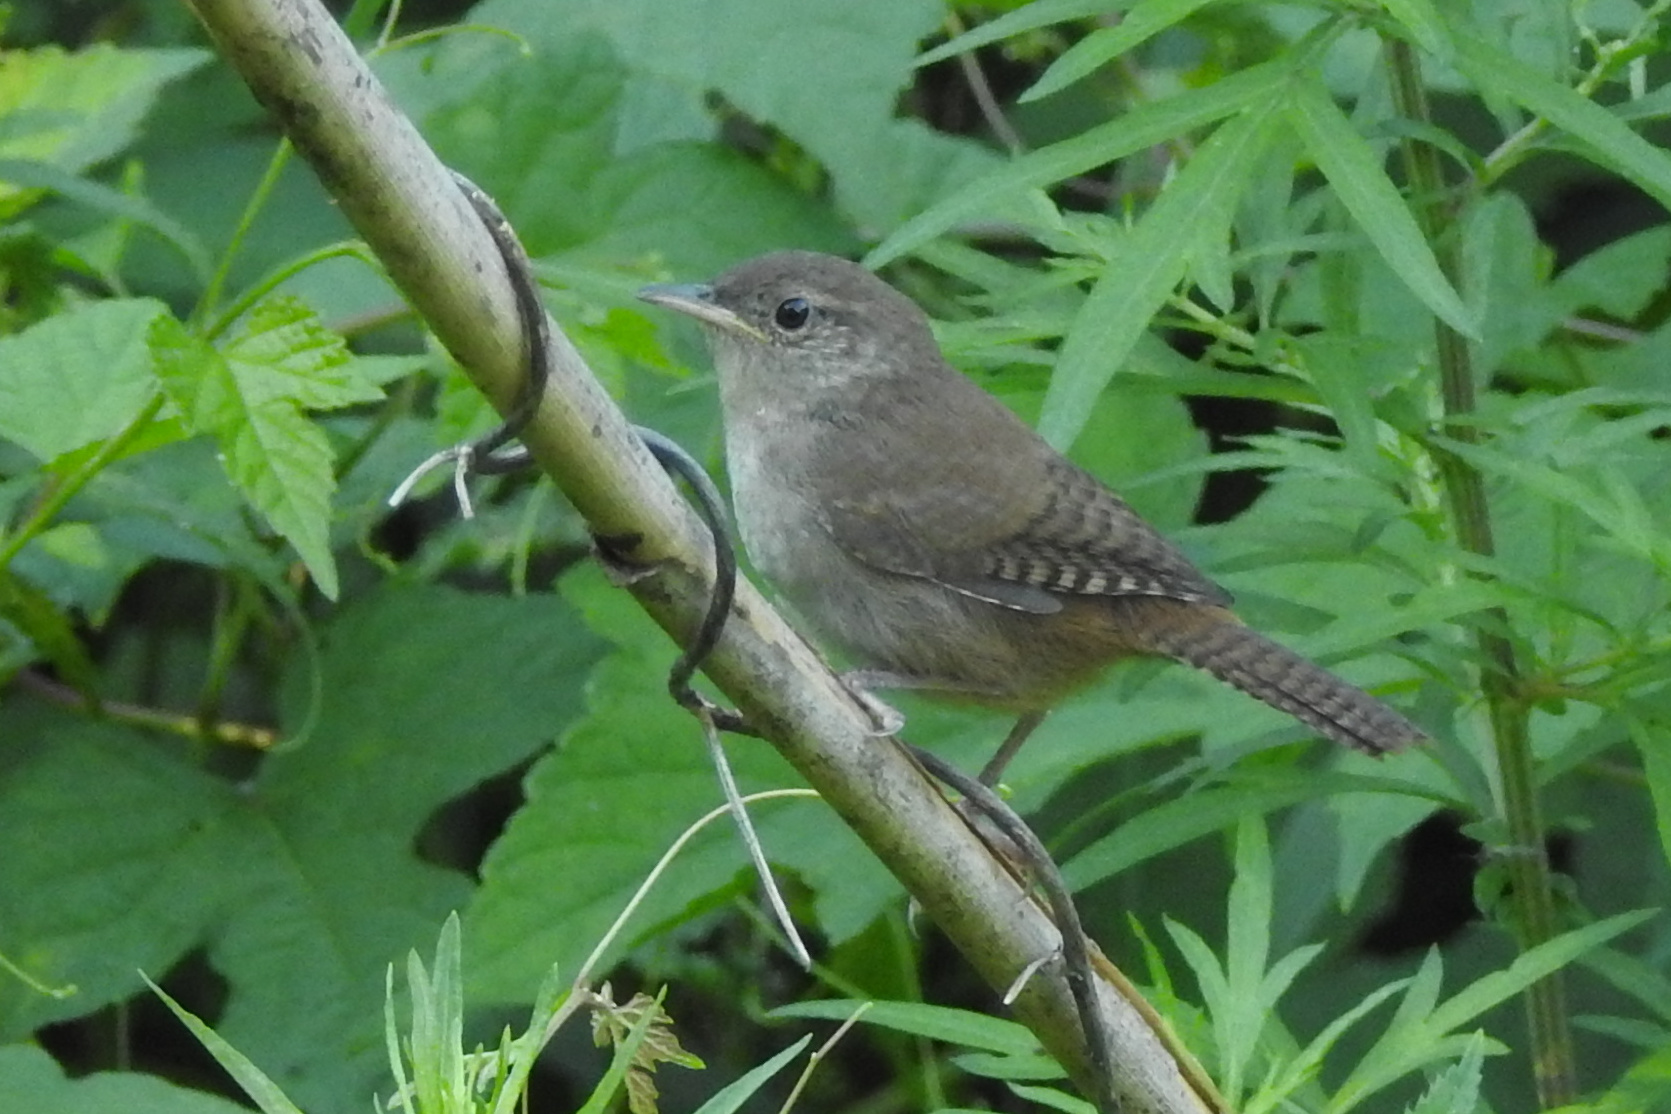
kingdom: Animalia
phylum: Chordata
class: Aves
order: Passeriformes
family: Troglodytidae
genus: Troglodytes
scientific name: Troglodytes aedon
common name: House wren
